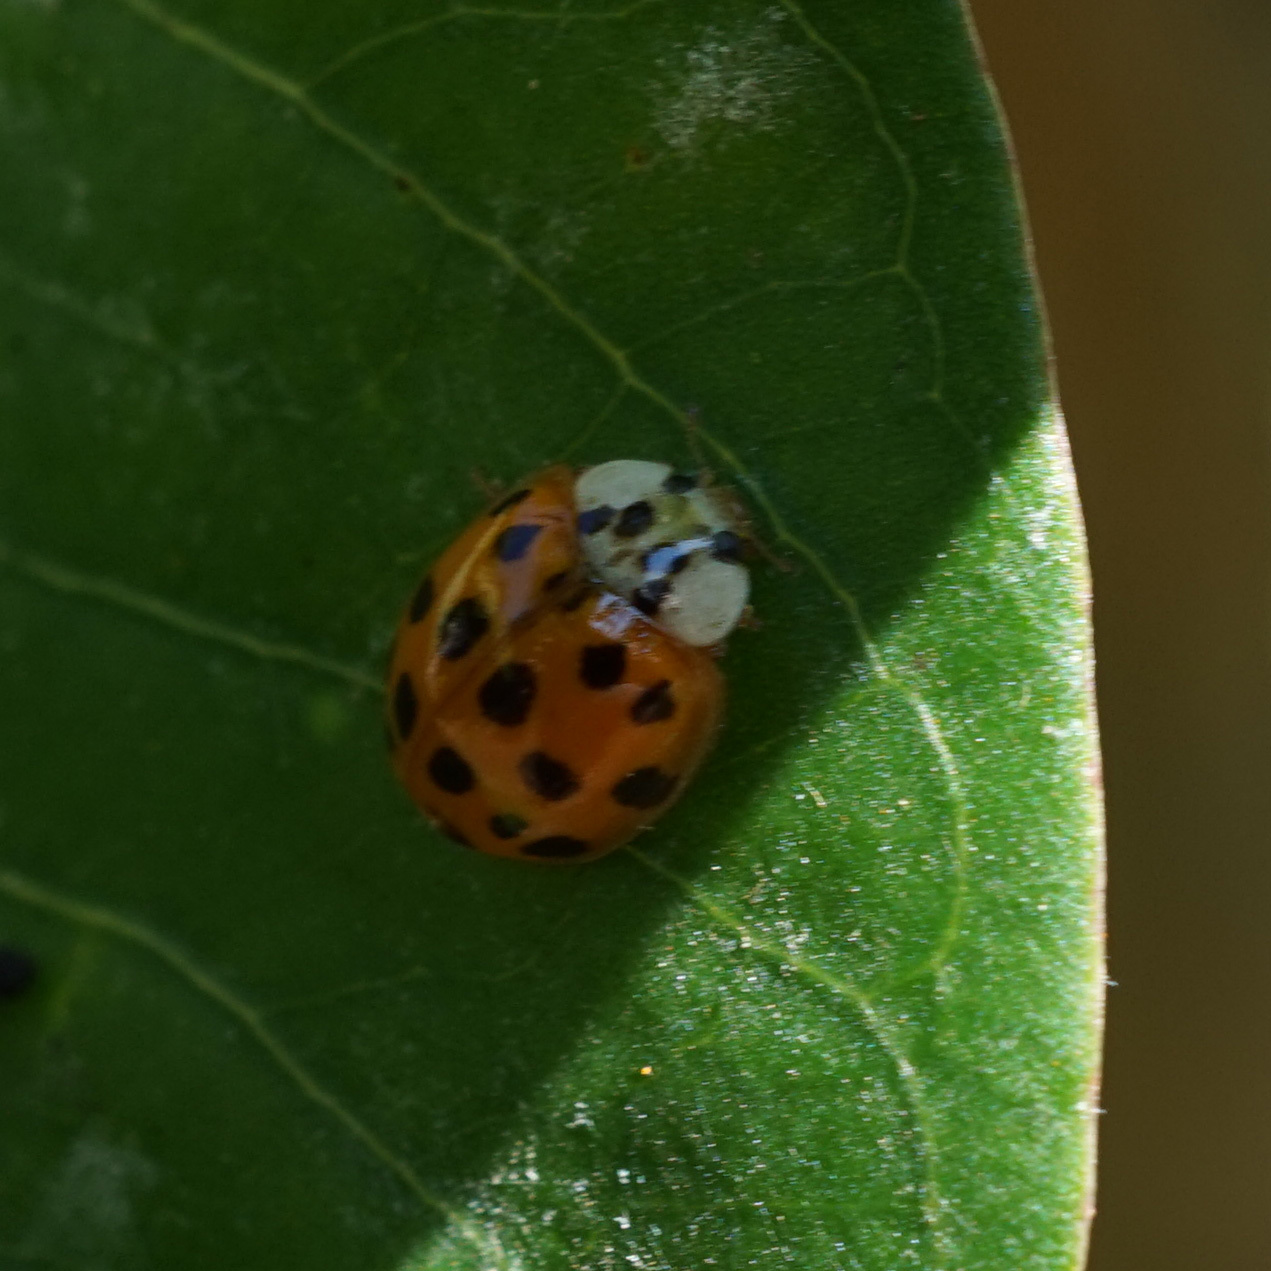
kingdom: Animalia
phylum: Arthropoda
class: Insecta
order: Coleoptera
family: Coccinellidae
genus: Harmonia
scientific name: Harmonia axyridis
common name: Harlequin ladybird
